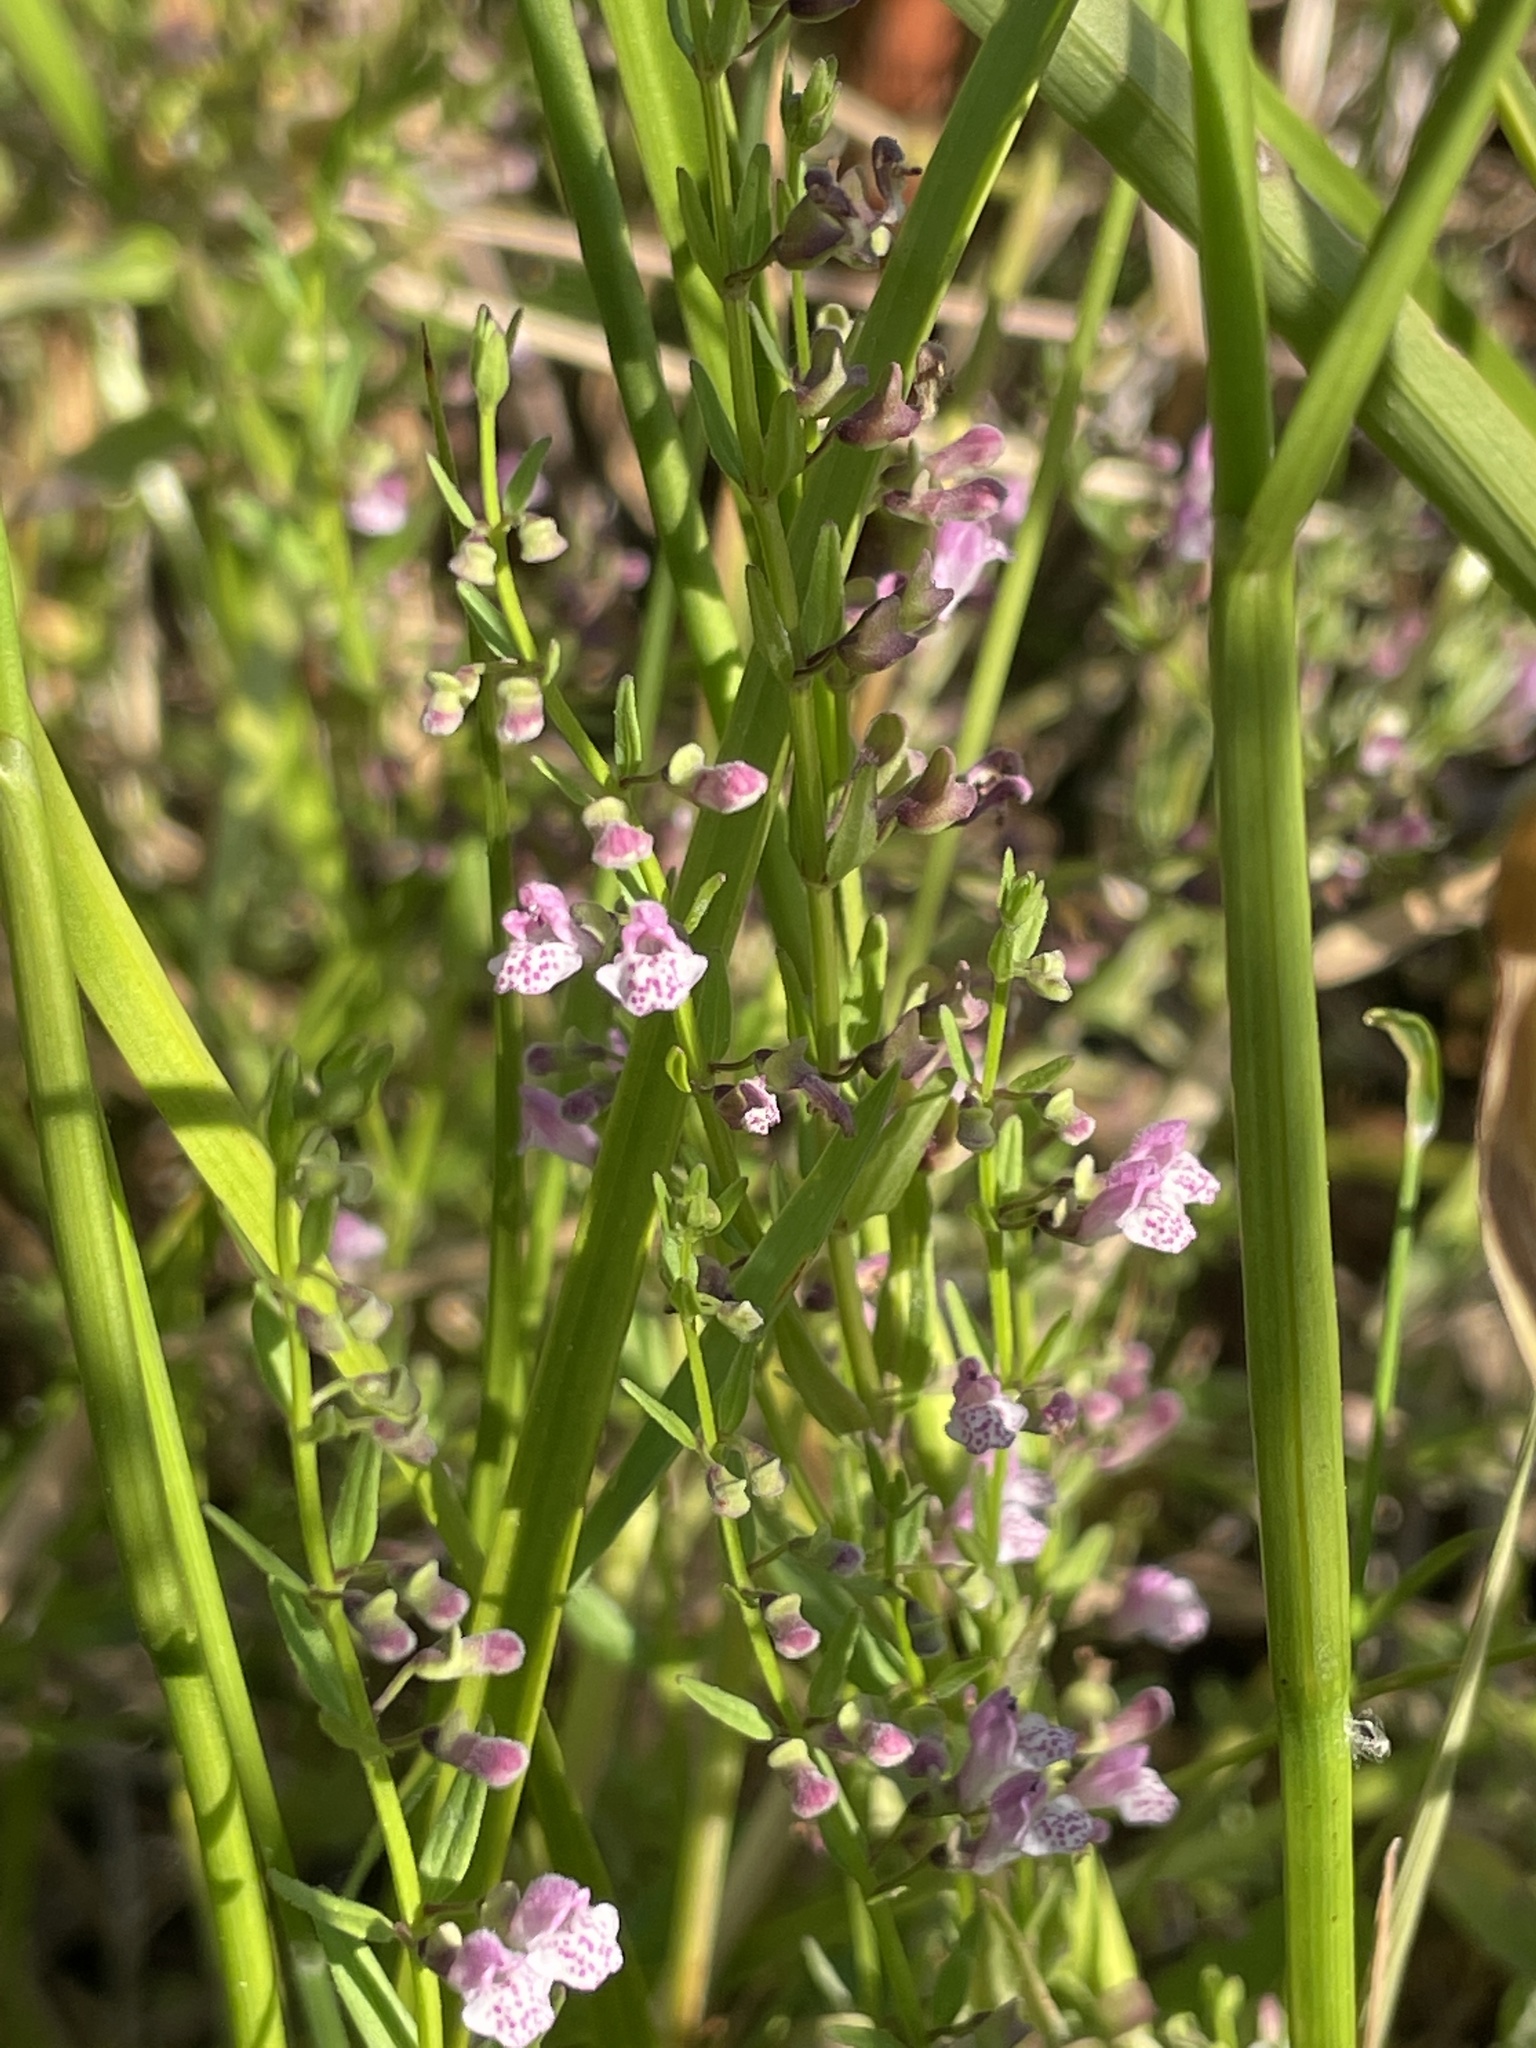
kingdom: Plantae
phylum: Tracheophyta
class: Magnoliopsida
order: Lamiales
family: Lamiaceae
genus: Scutellaria
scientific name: Scutellaria racemosa
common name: South american skullcap
